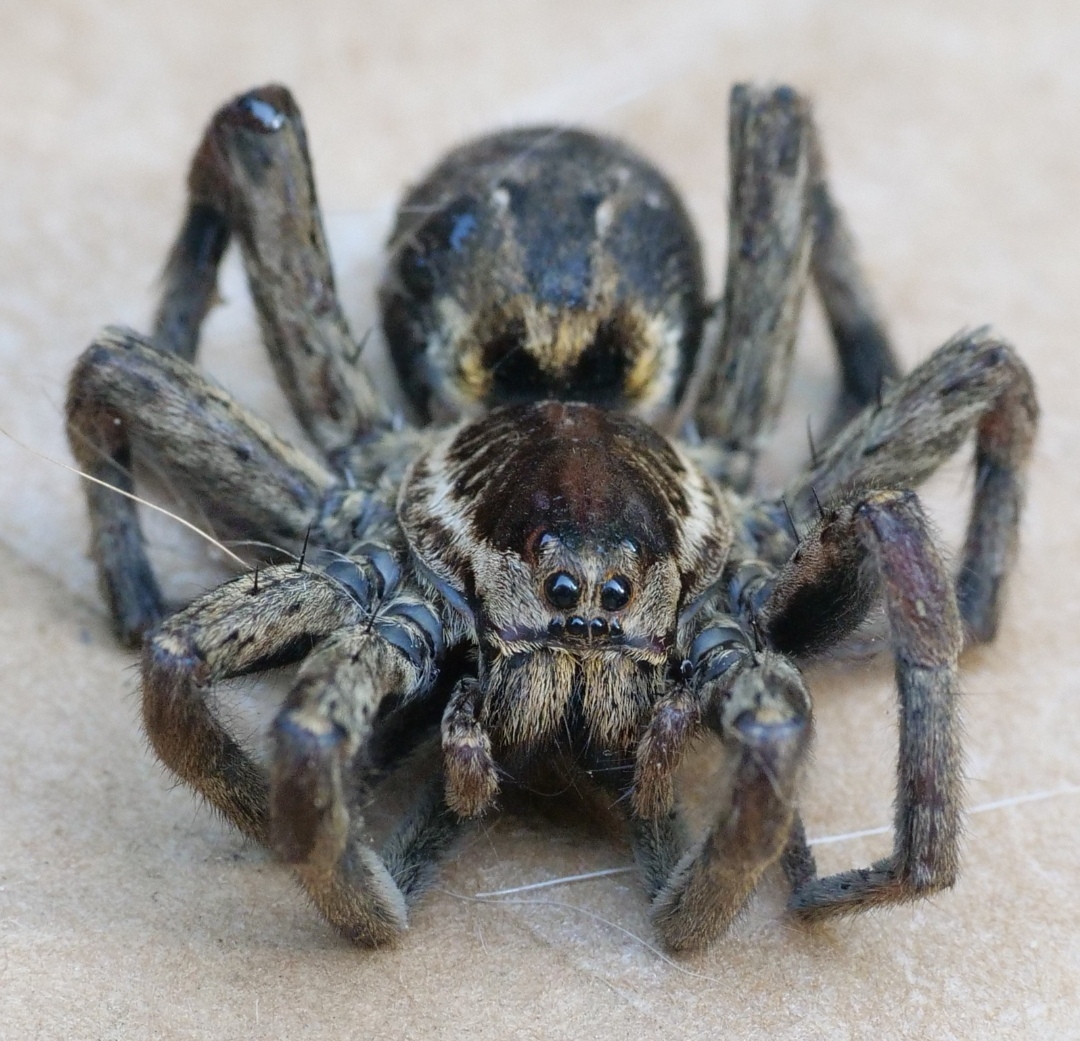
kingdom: Animalia
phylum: Arthropoda
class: Arachnida
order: Araneae
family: Lycosidae
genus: Hogna
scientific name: Hogna radiata
